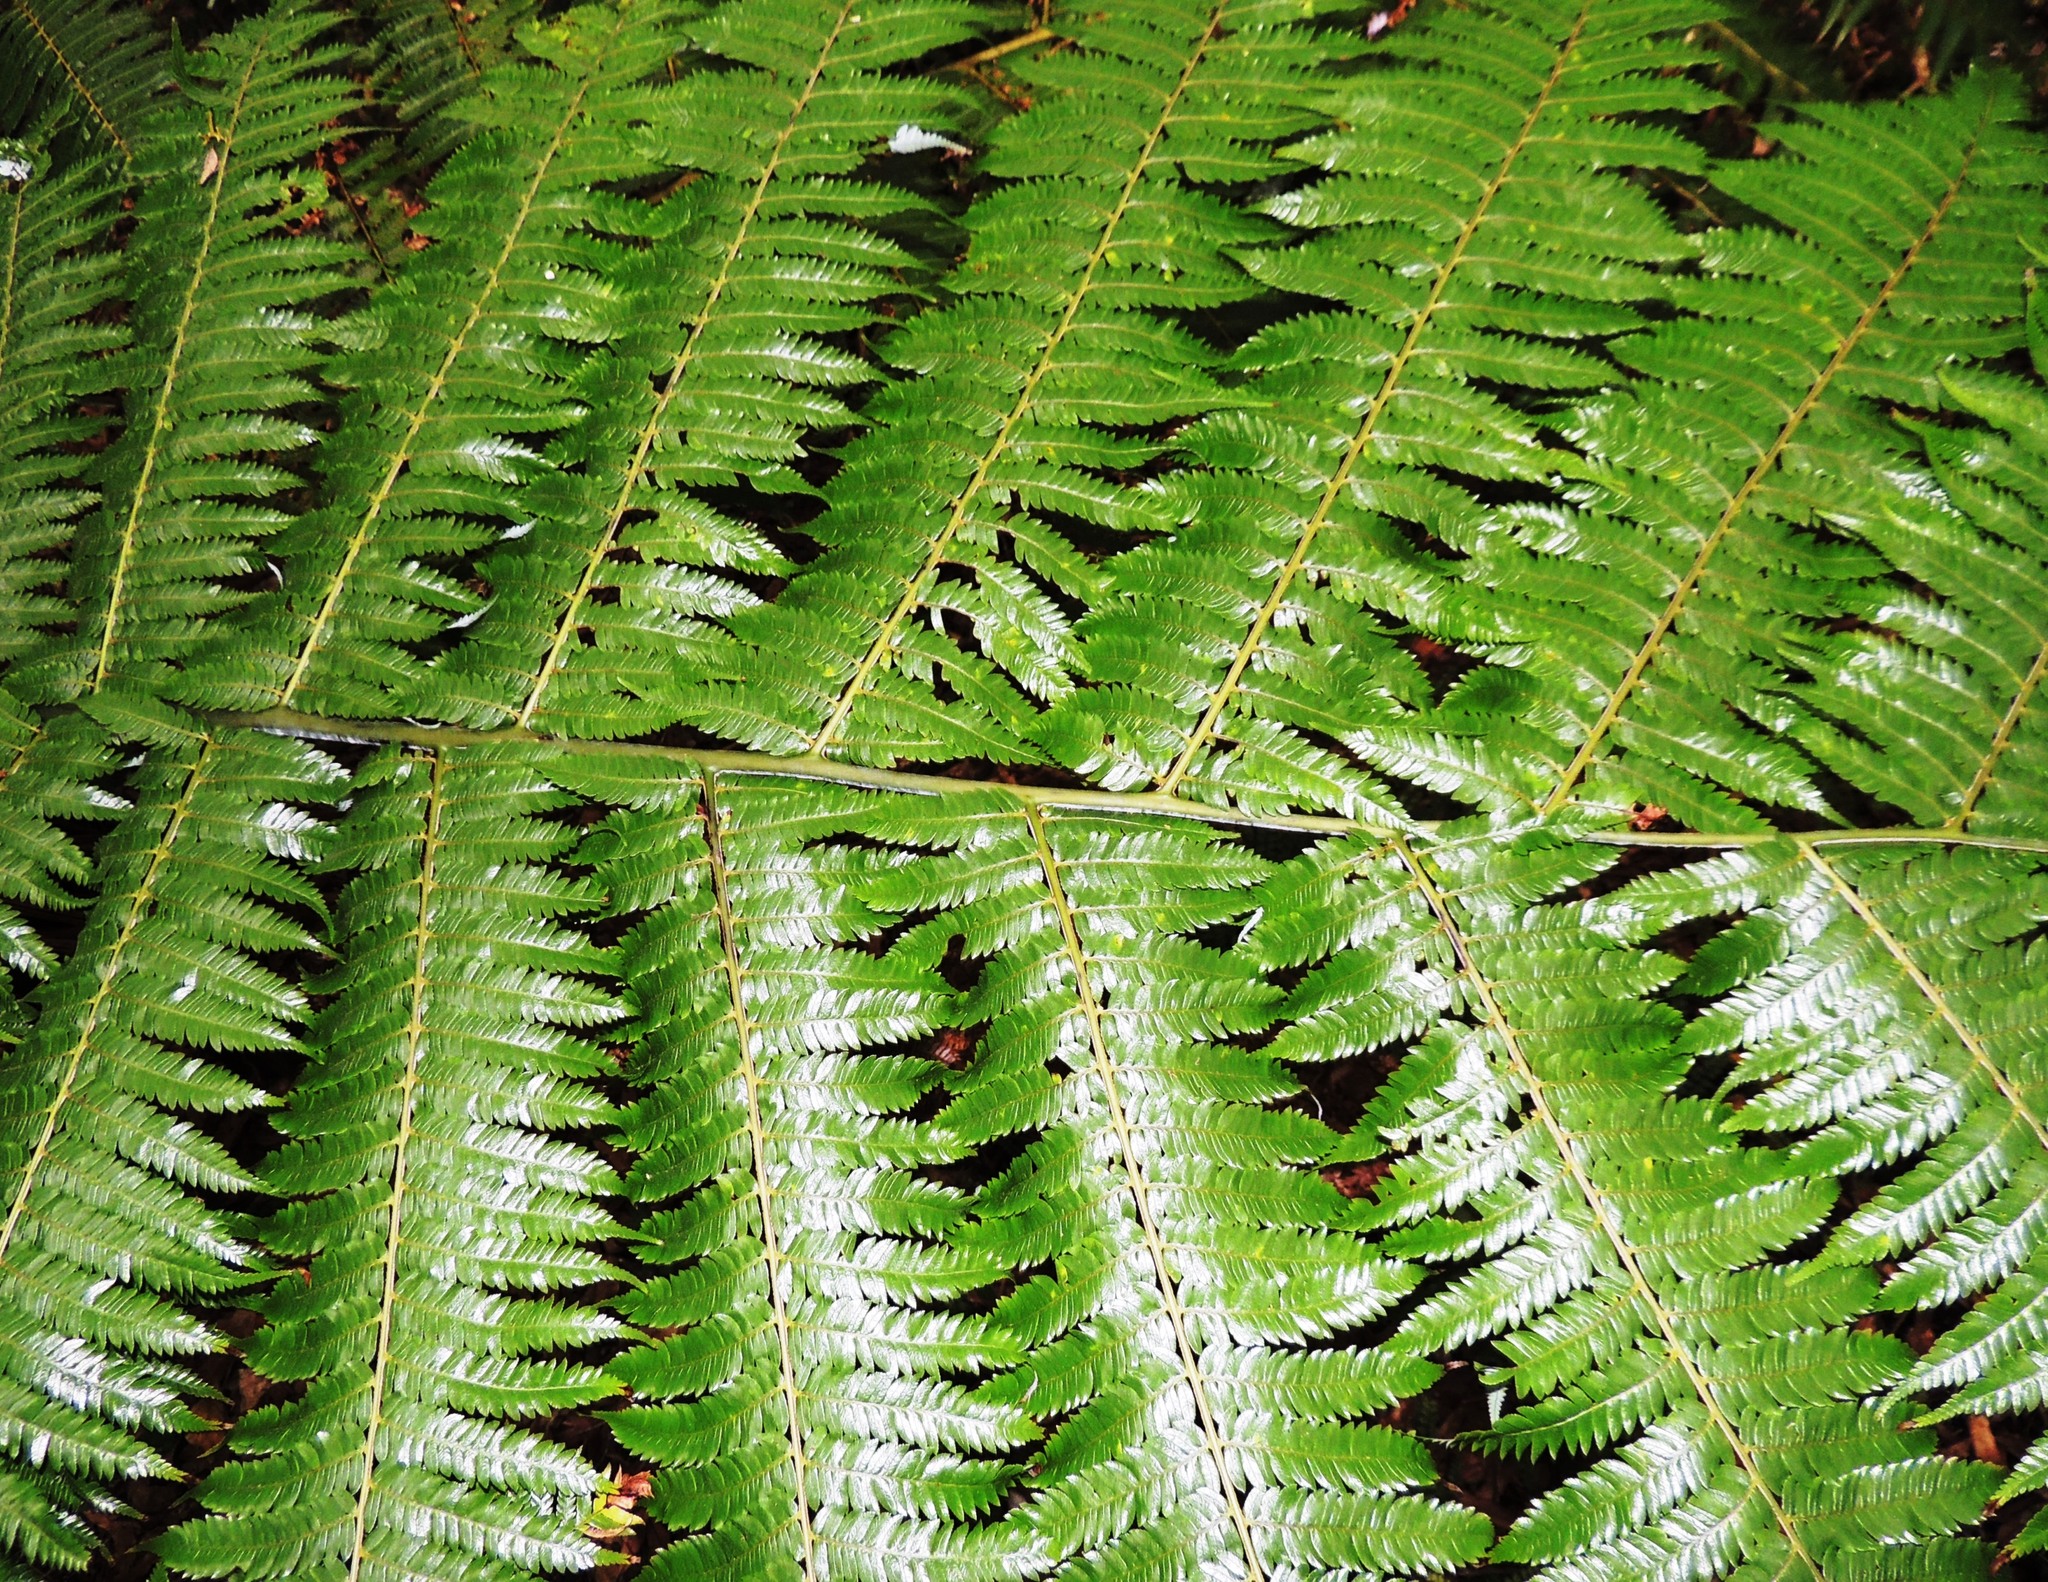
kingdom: Plantae
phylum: Tracheophyta
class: Polypodiopsida
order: Cyatheales
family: Cyatheaceae
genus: Alsophila
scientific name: Alsophila dealbata
